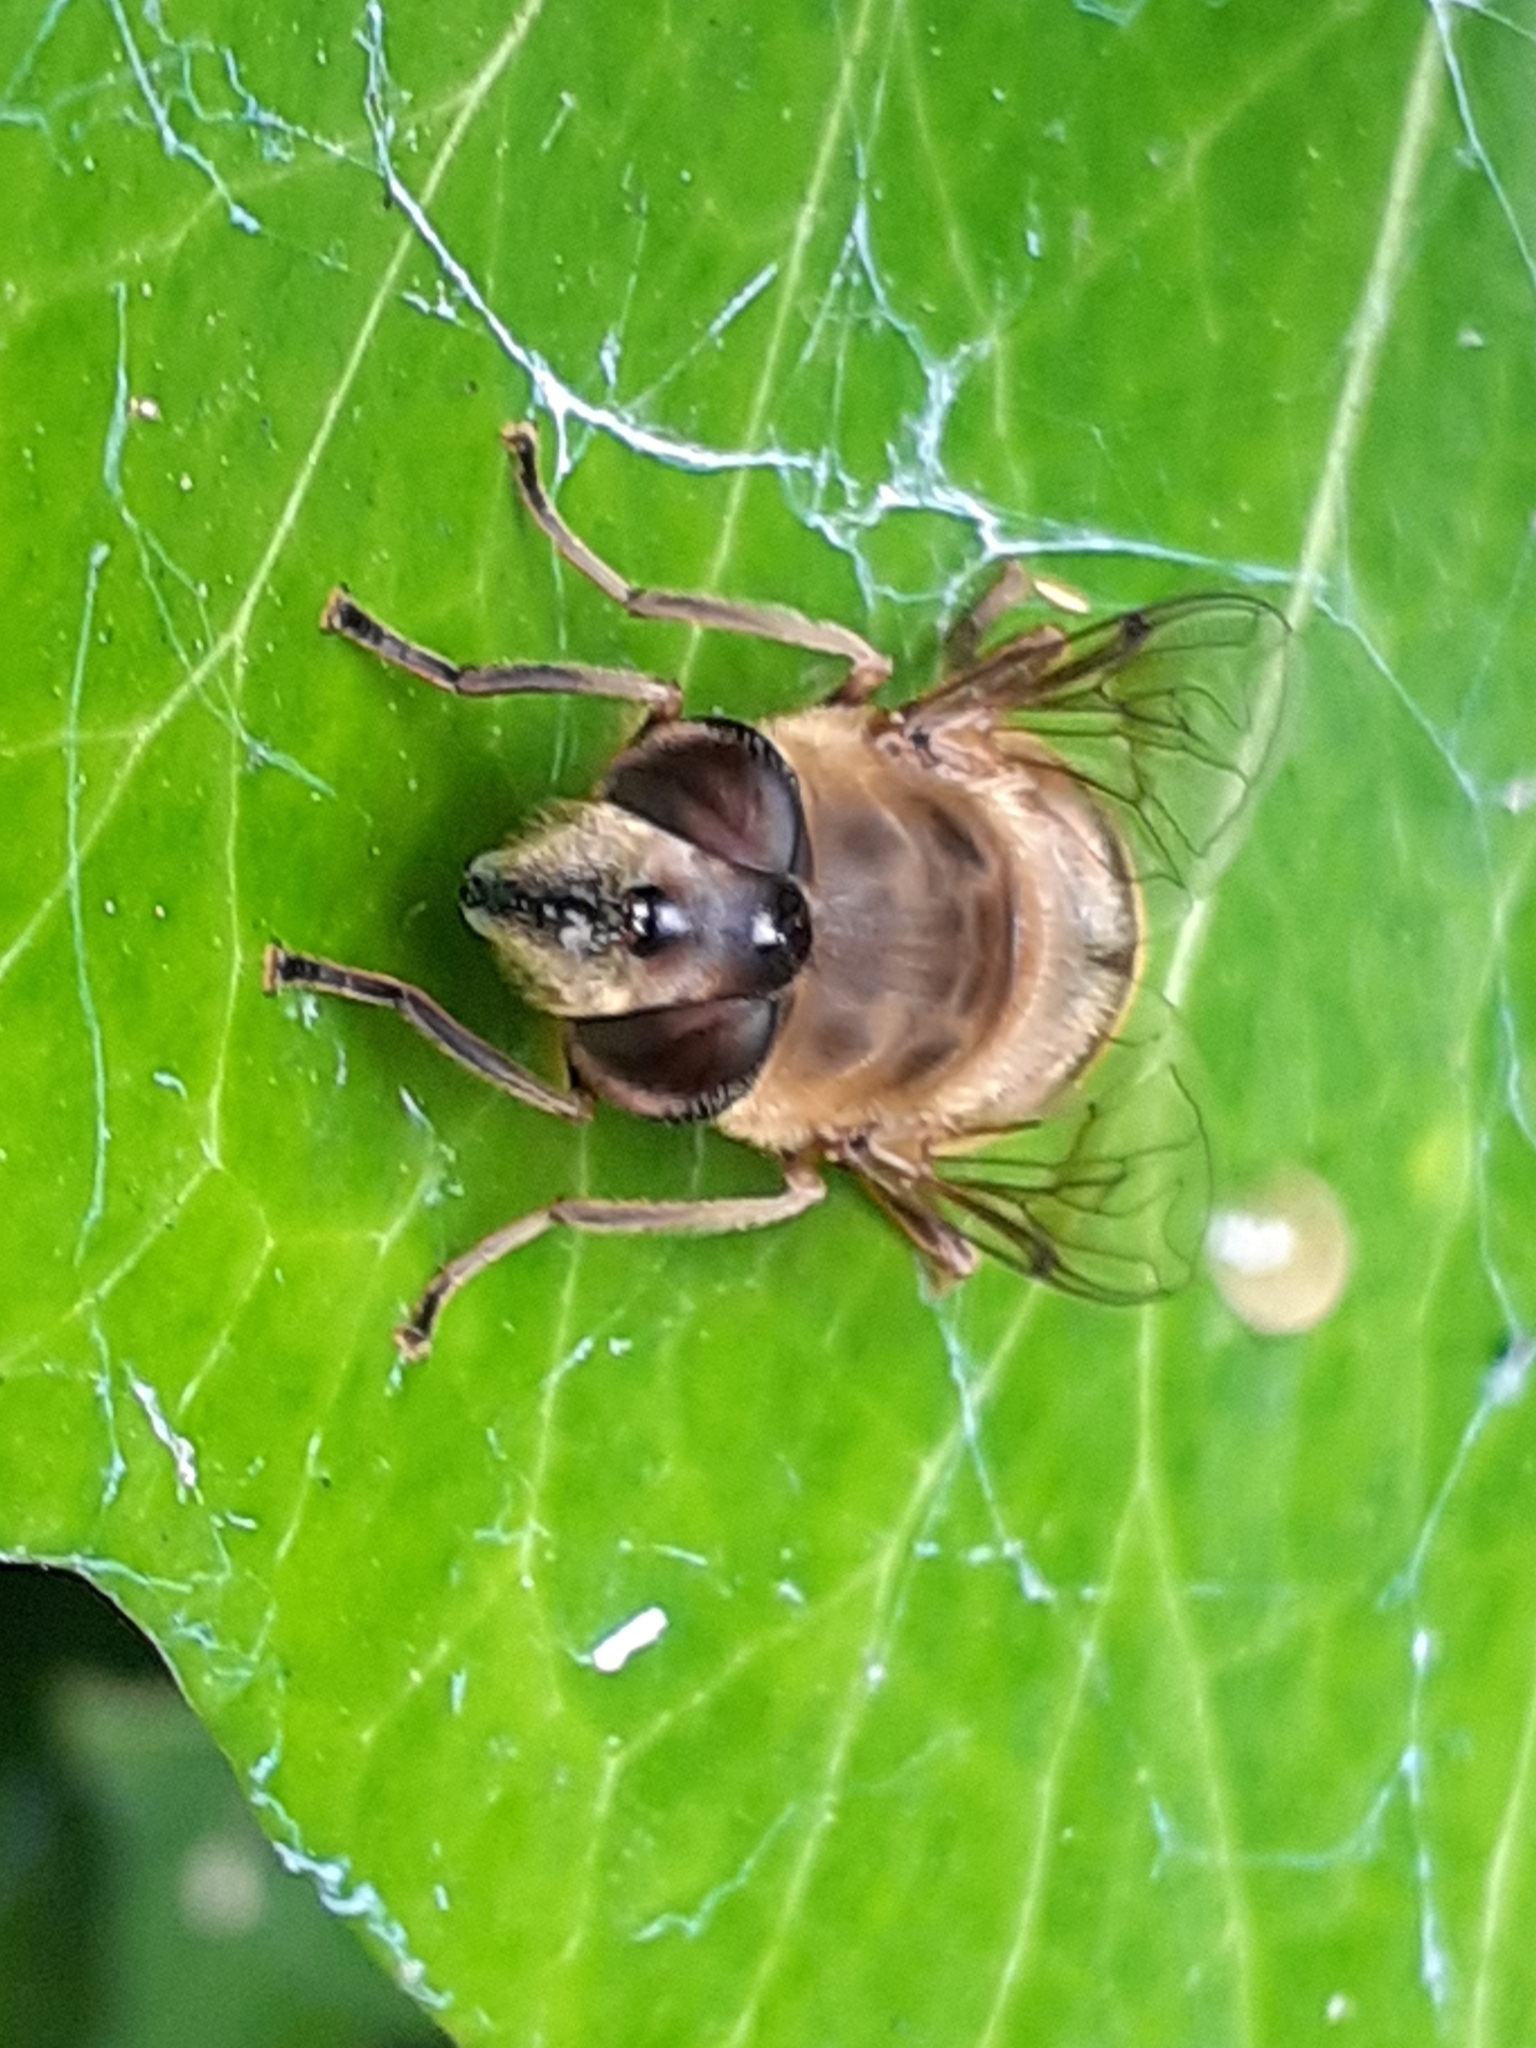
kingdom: Animalia
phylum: Arthropoda
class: Insecta
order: Diptera
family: Syrphidae
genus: Eristalis
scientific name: Eristalis tenax
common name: Drone fly
